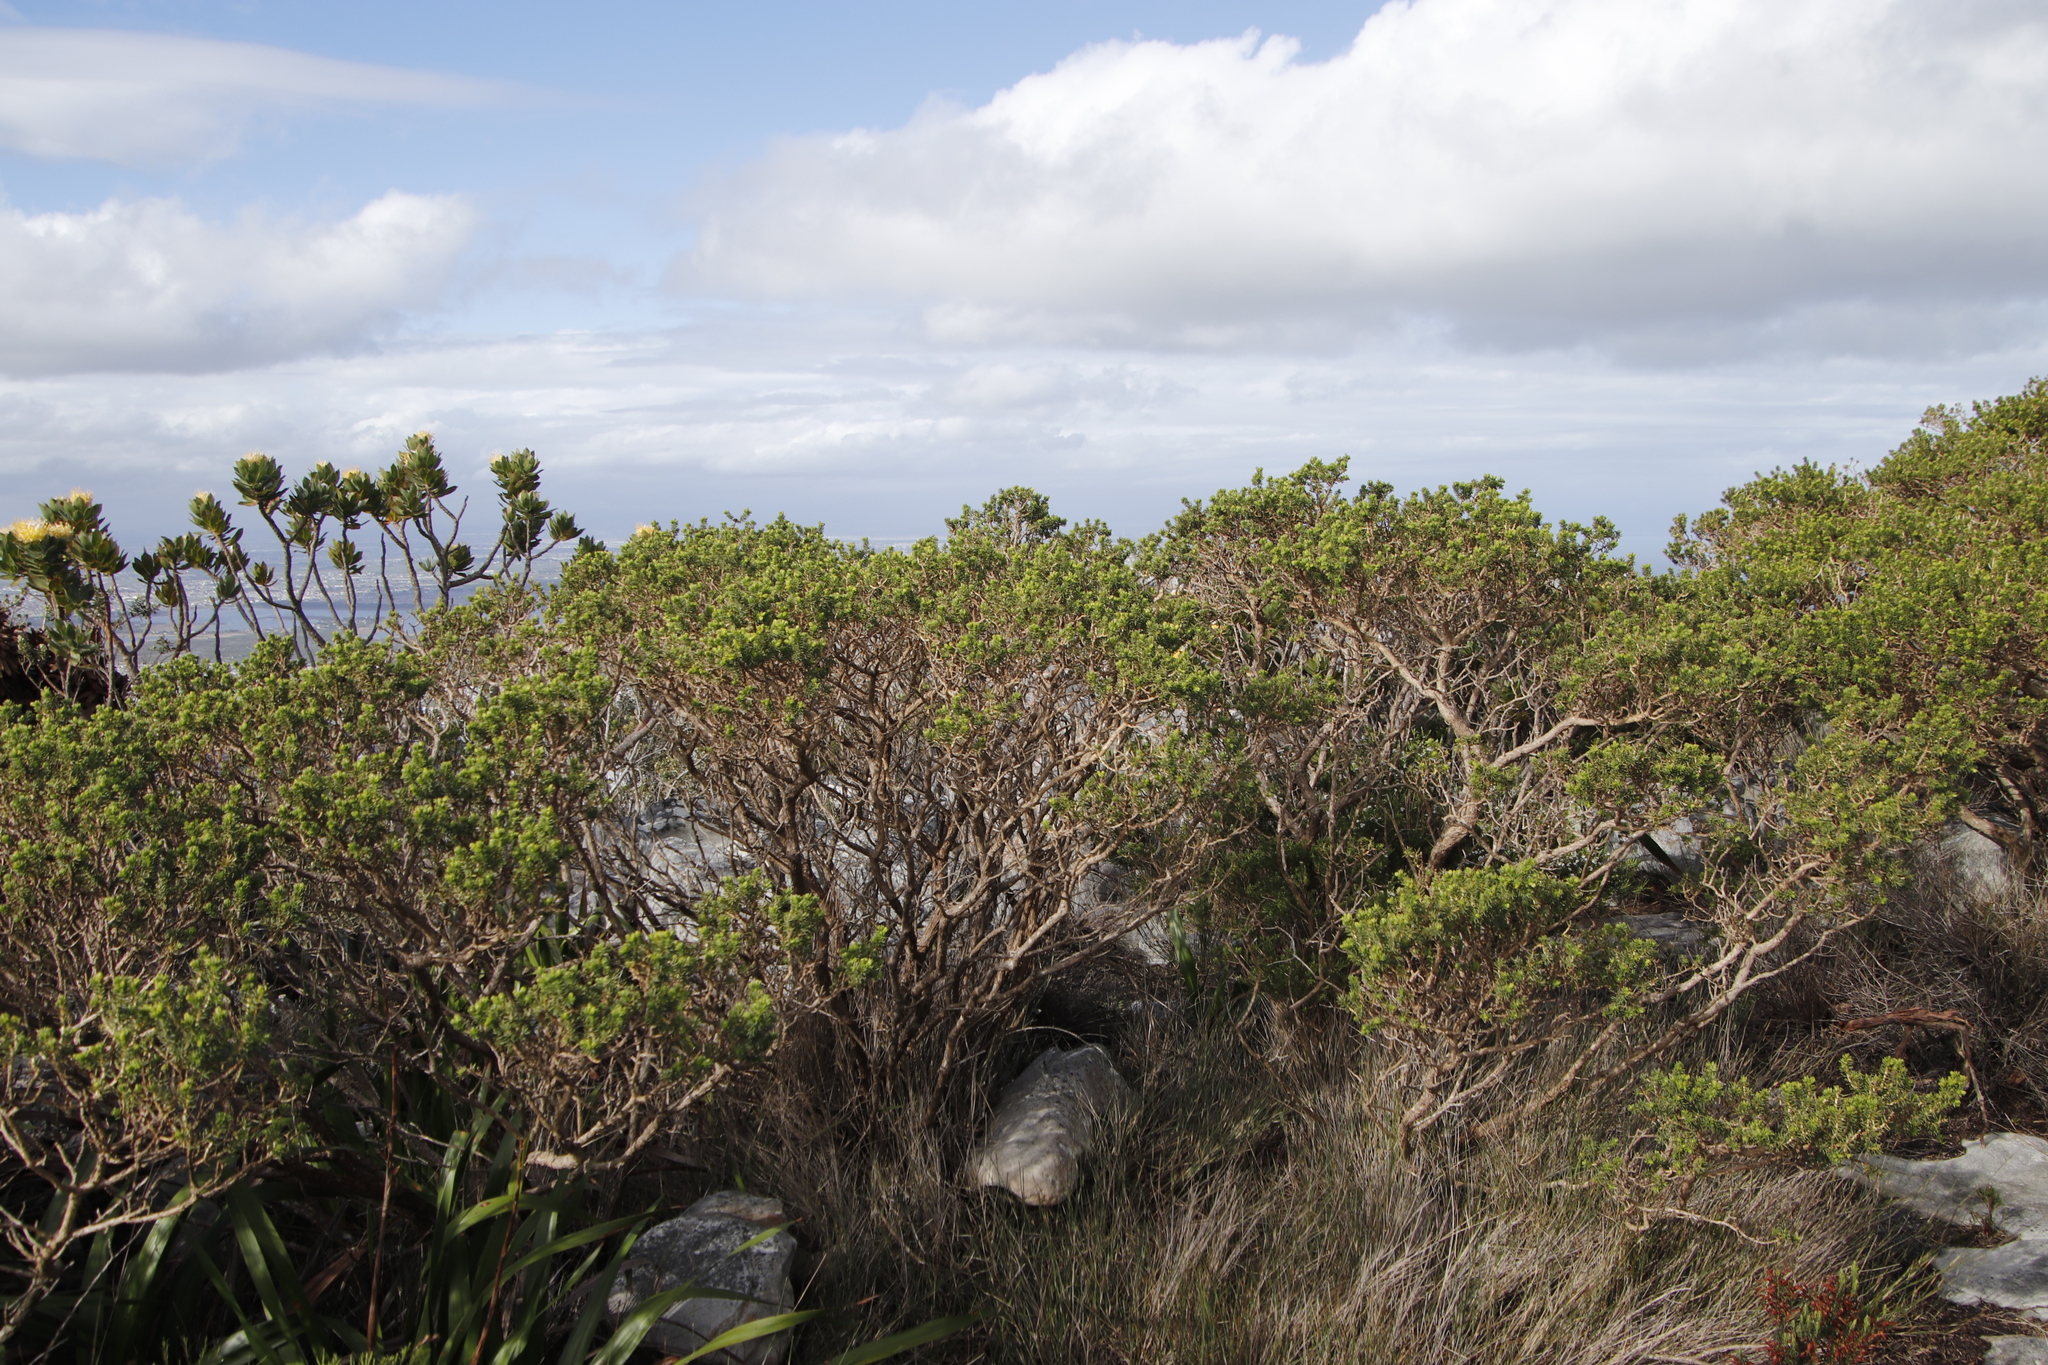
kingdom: Plantae
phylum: Tracheophyta
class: Magnoliopsida
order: Fabales
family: Fabaceae
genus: Aspalathus
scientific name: Aspalathus capensis
